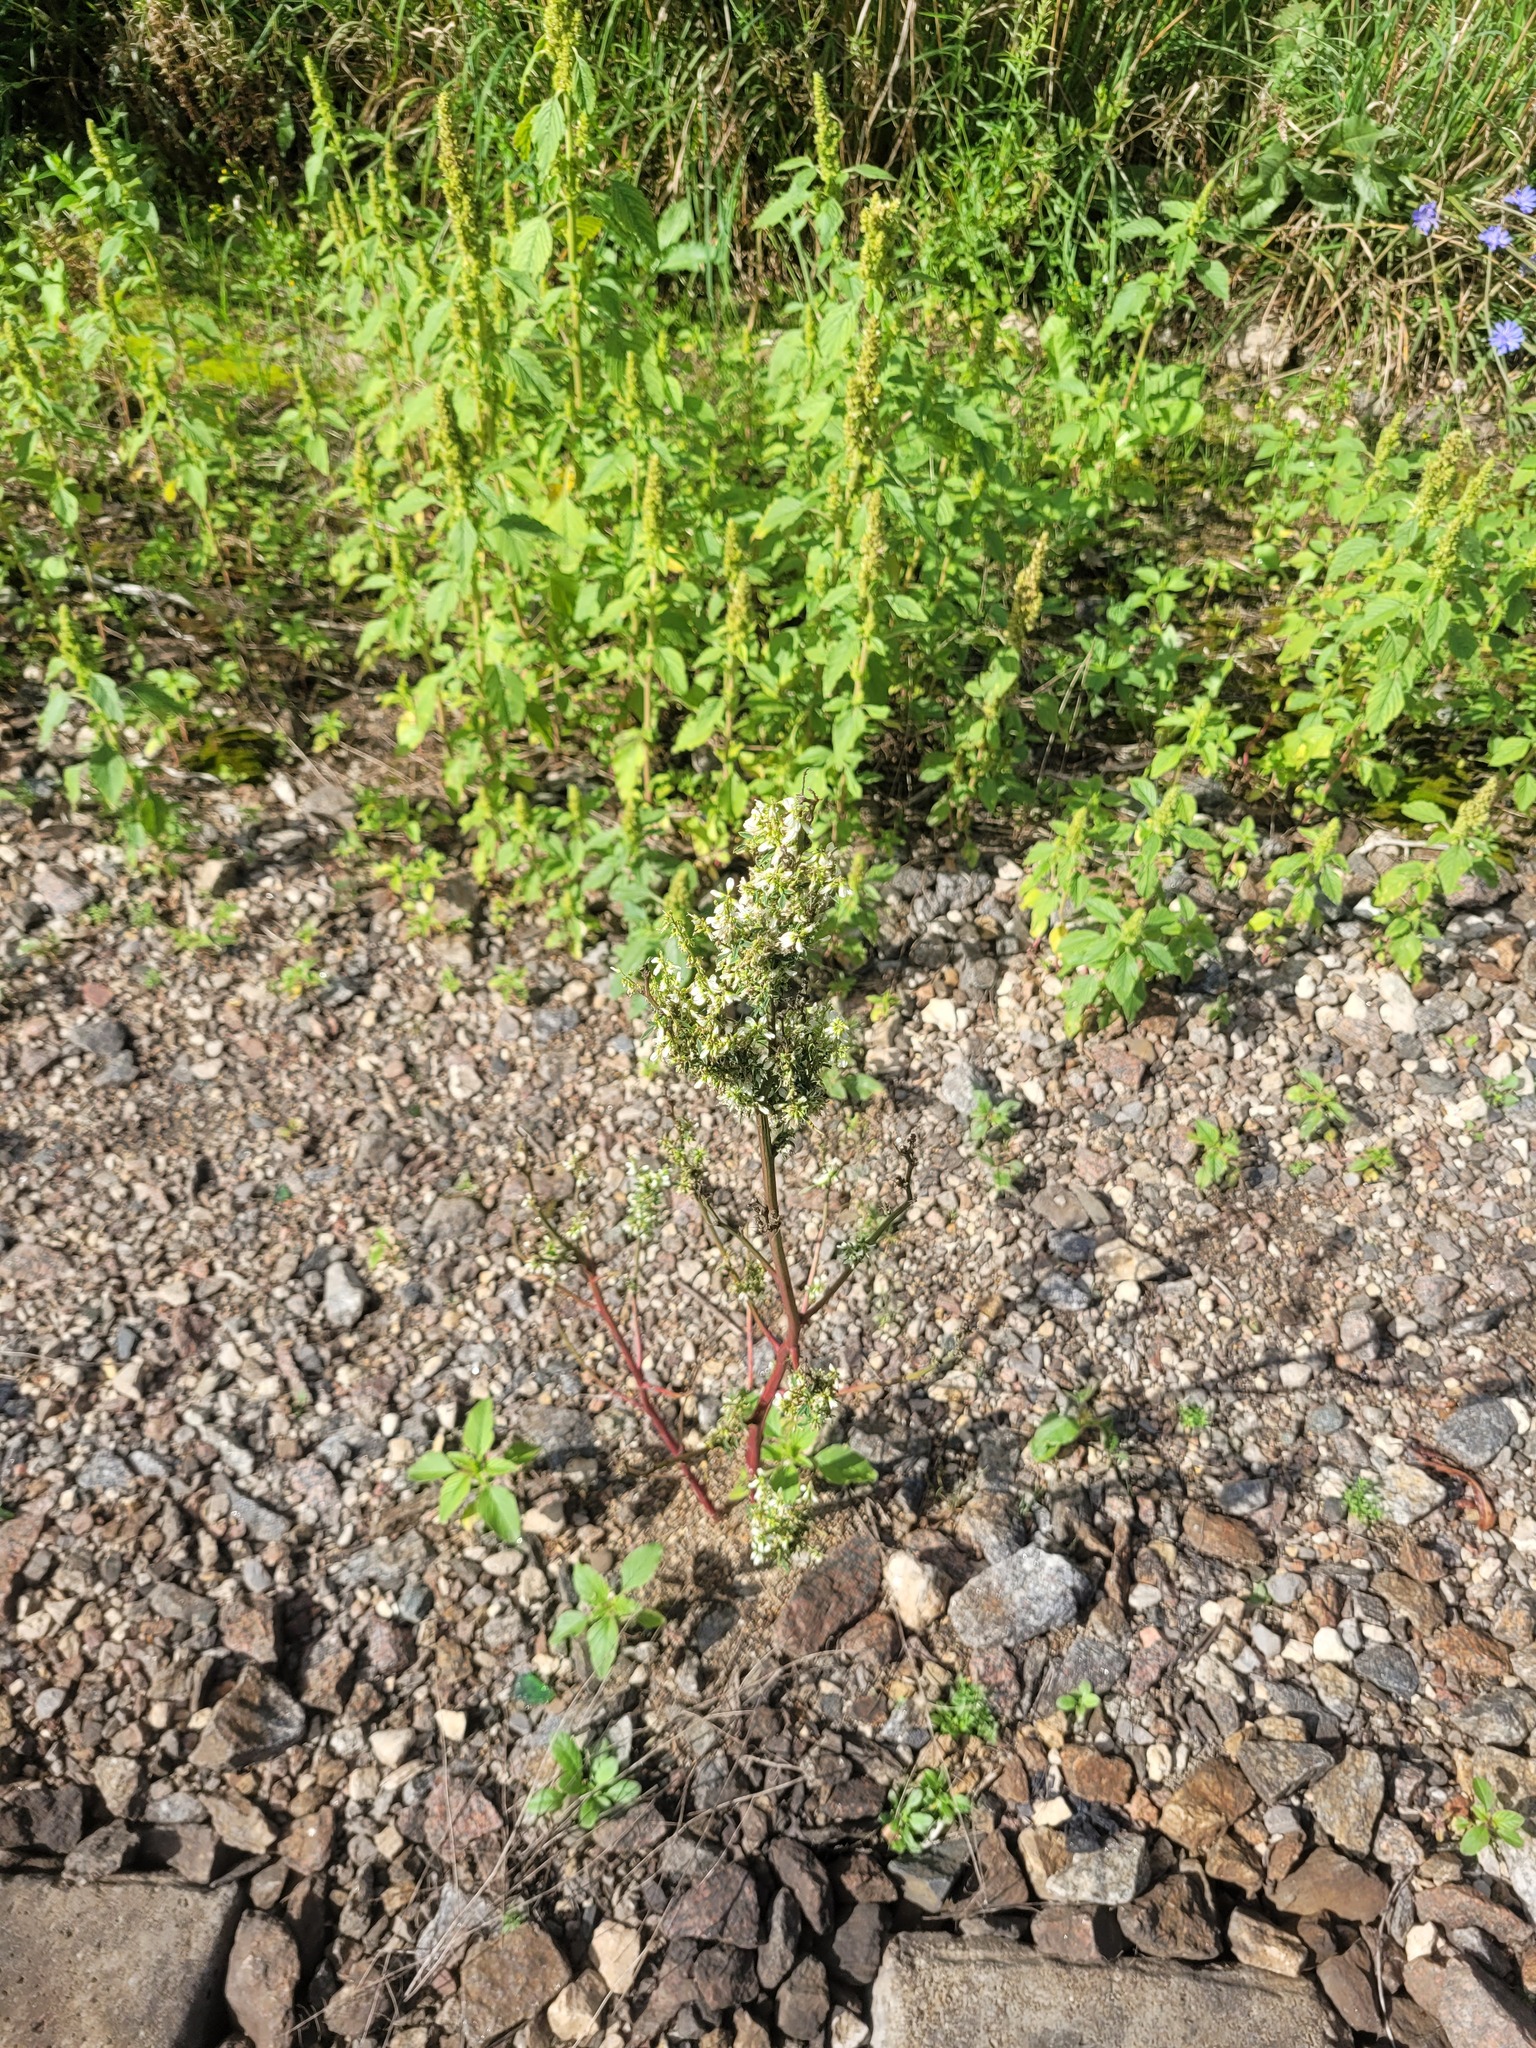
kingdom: Plantae
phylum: Tracheophyta
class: Magnoliopsida
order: Fabales
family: Fabaceae
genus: Melilotus
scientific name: Melilotus albus
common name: White melilot
